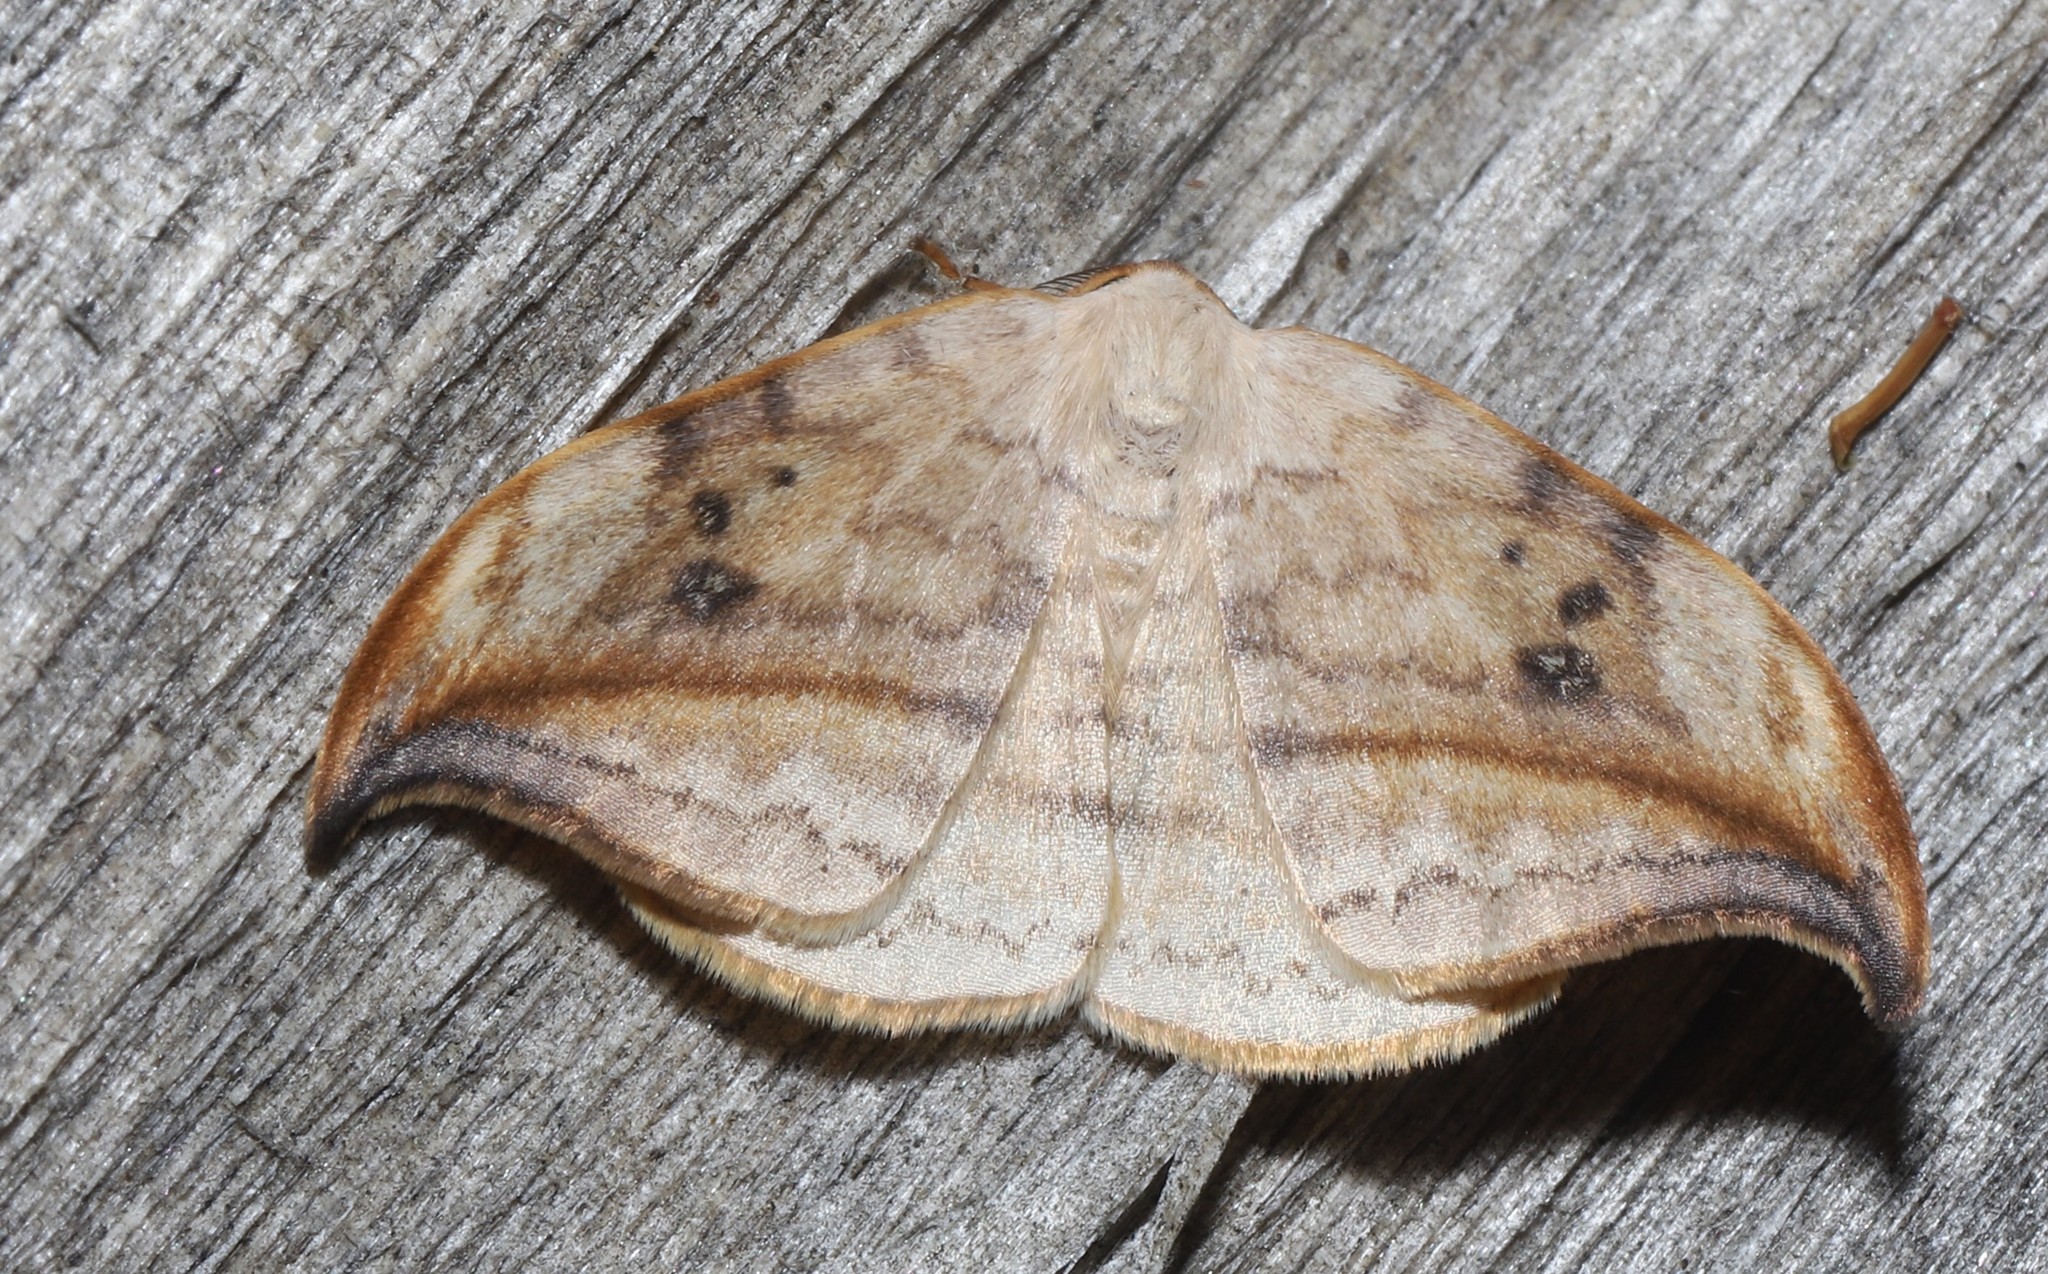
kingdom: Animalia
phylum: Arthropoda
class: Insecta
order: Lepidoptera
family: Drepanidae
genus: Drepana
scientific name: Drepana arcuata
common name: Arched hooktip moth
